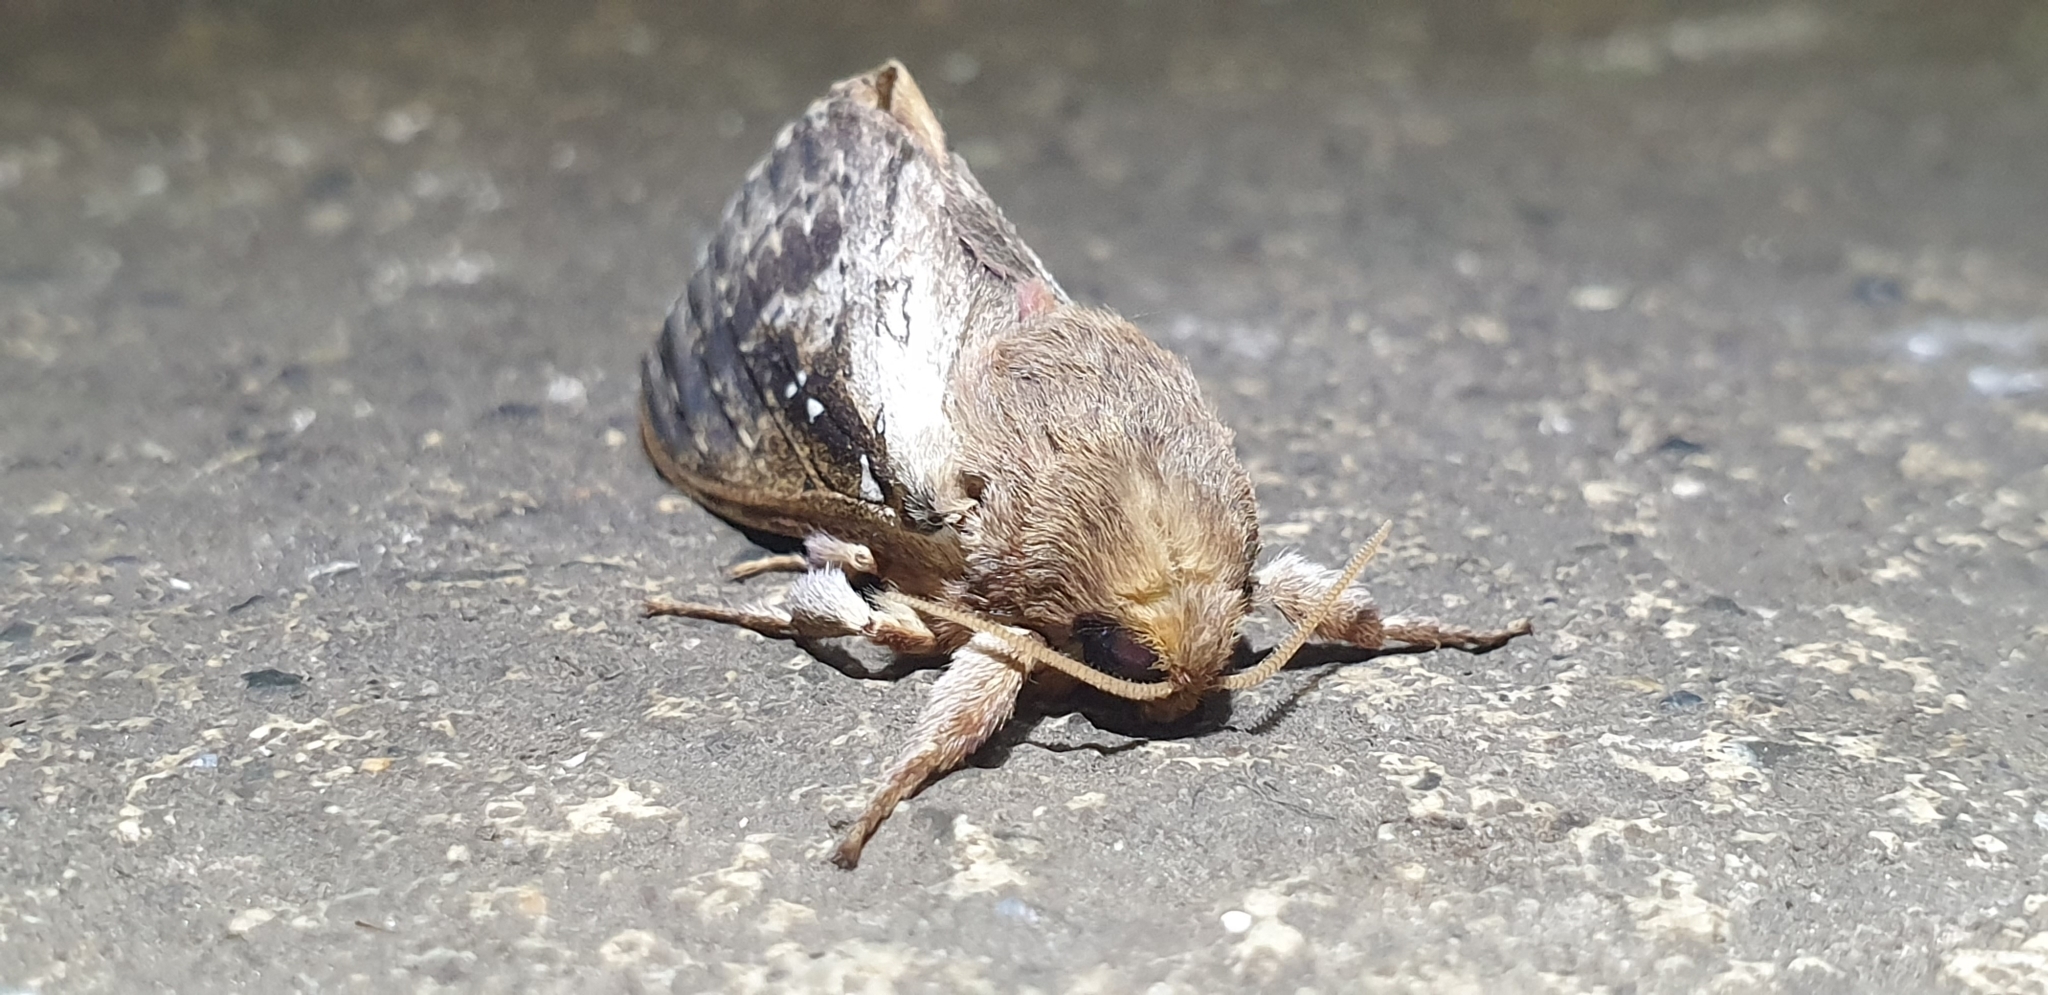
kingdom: Animalia
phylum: Arthropoda
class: Insecta
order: Lepidoptera
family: Hepialidae
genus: Wiseana
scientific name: Wiseana cervinata
